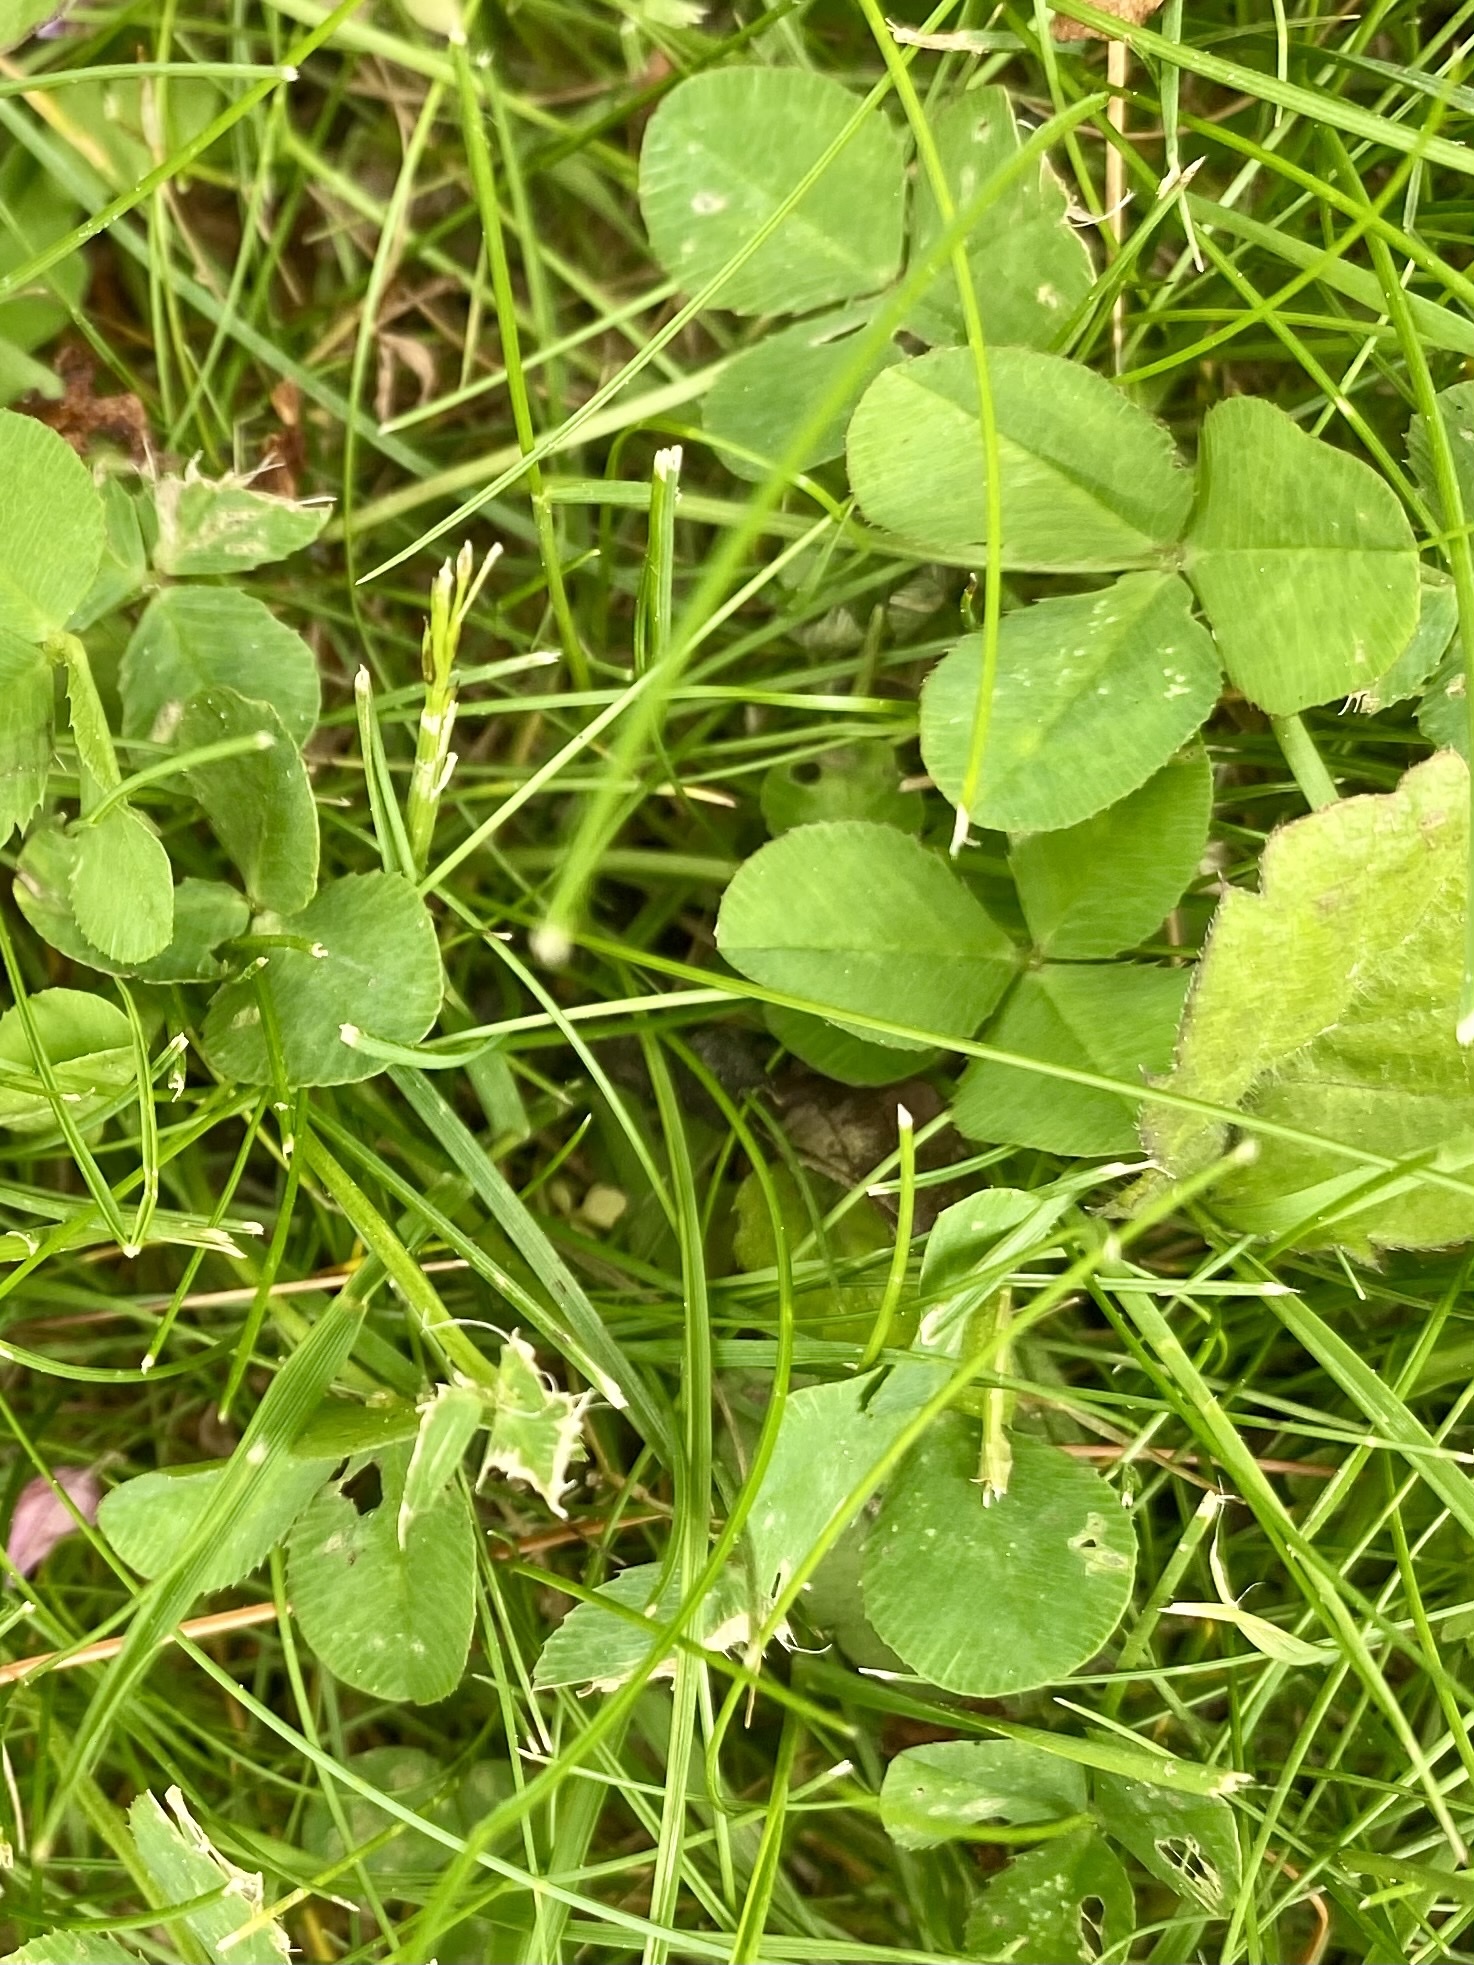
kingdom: Plantae
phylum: Tracheophyta
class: Magnoliopsida
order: Fabales
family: Fabaceae
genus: Trifolium
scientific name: Trifolium repens
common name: White clover
